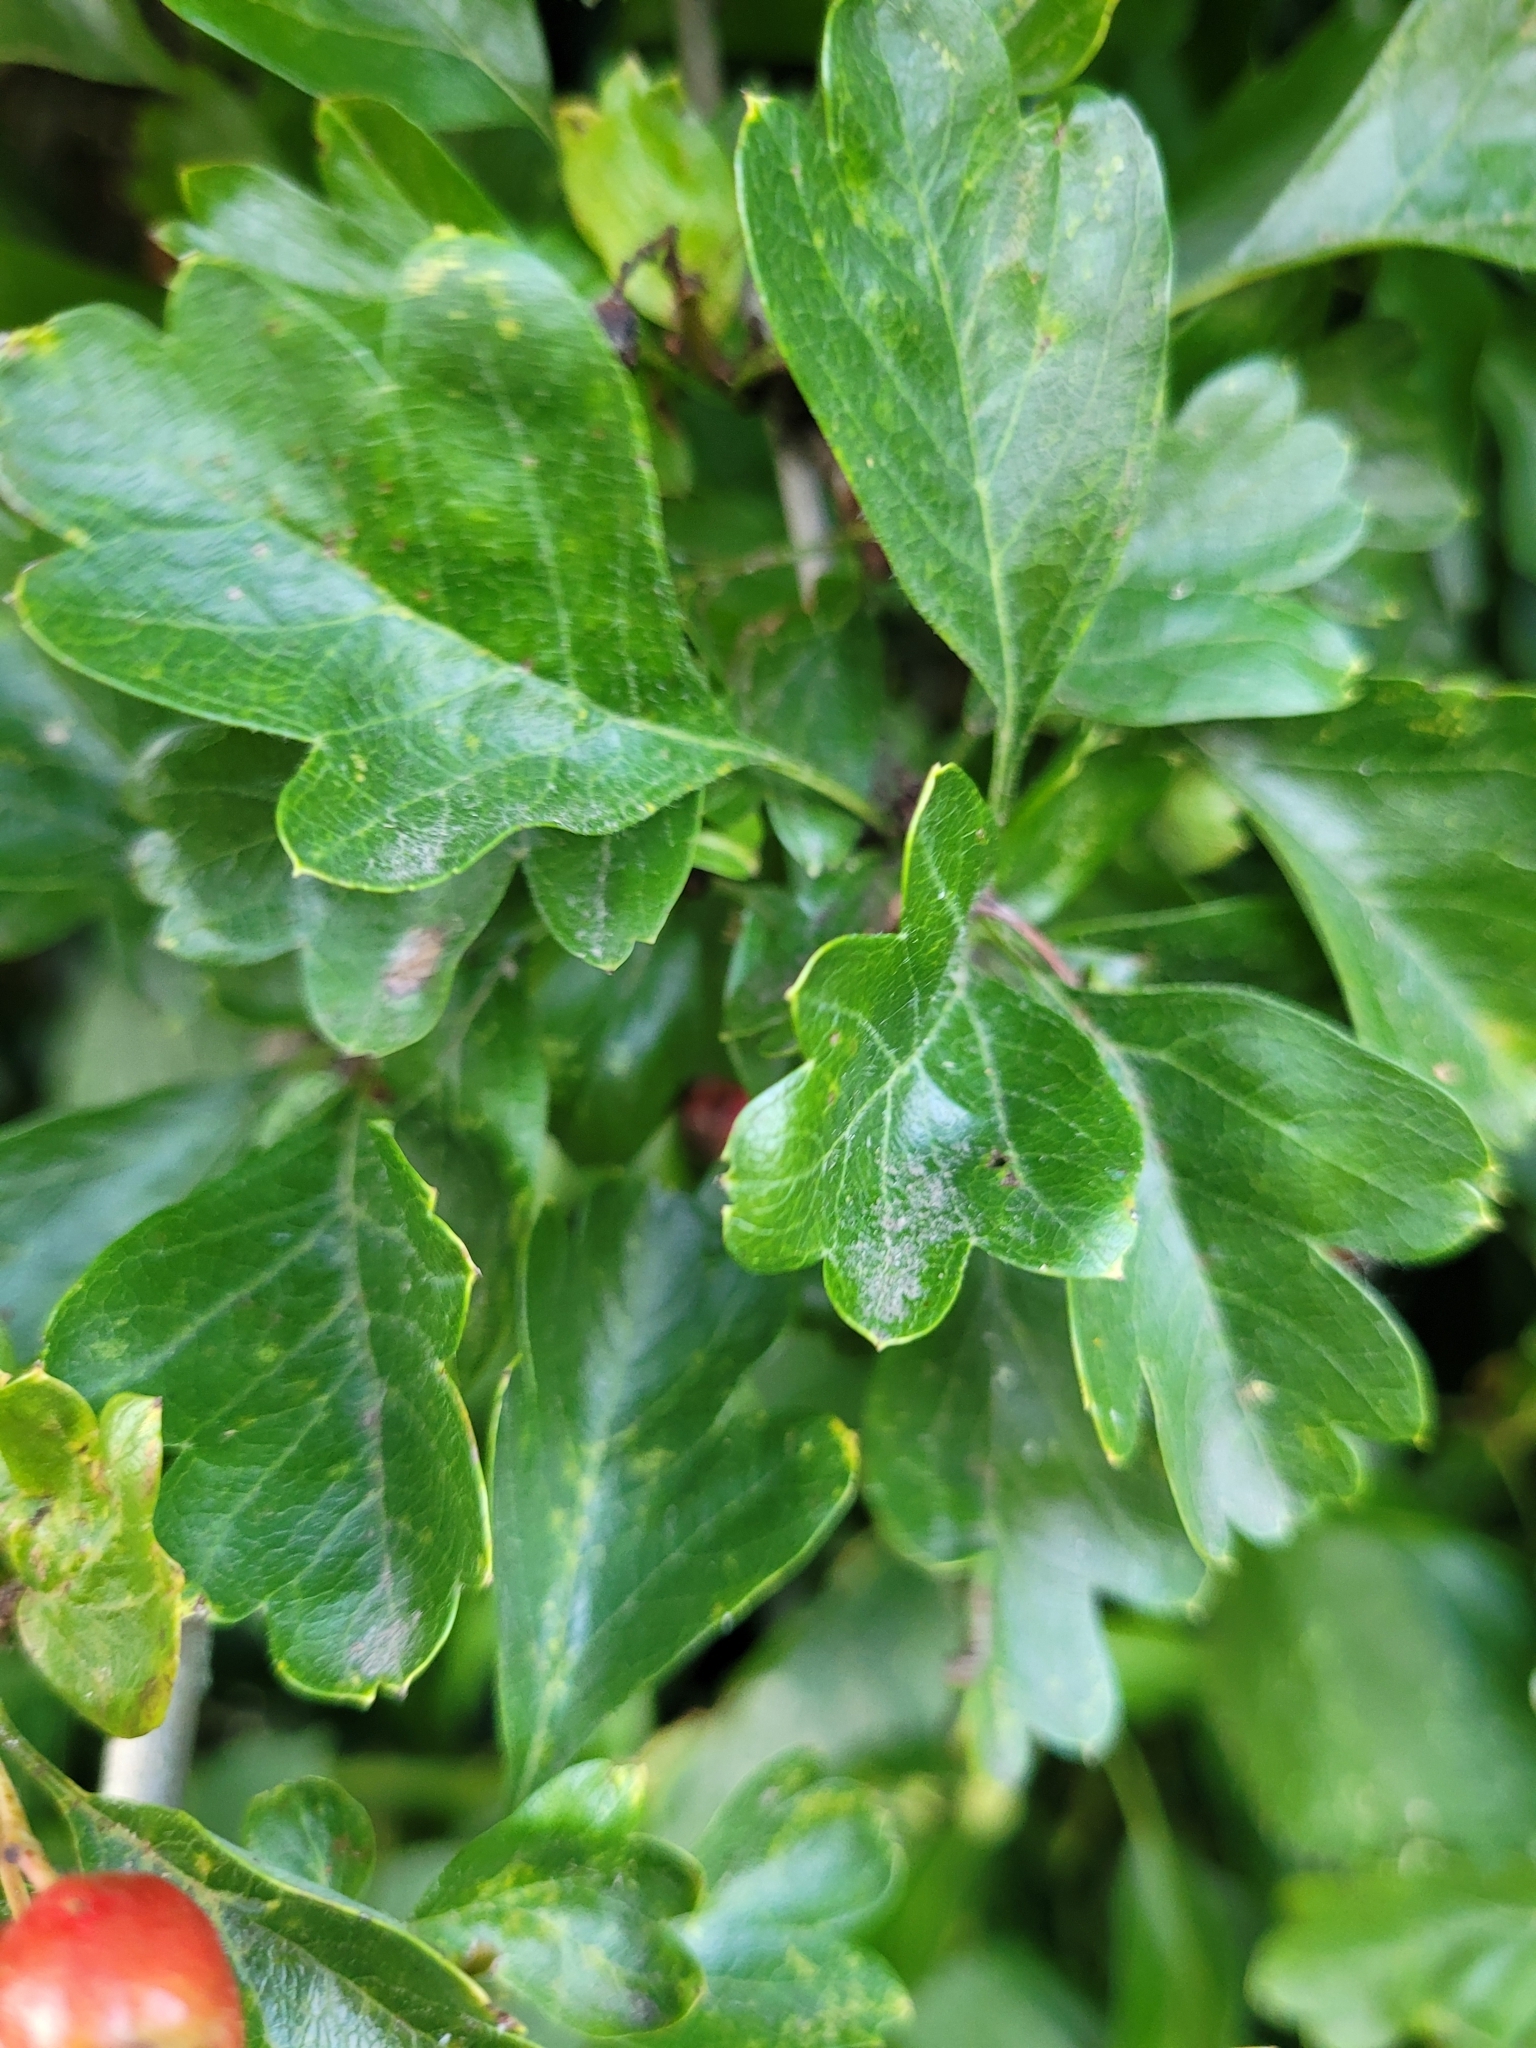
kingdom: Plantae
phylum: Tracheophyta
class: Magnoliopsida
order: Rosales
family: Rosaceae
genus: Crataegus
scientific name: Crataegus laevigata
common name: Midland hawthorn
